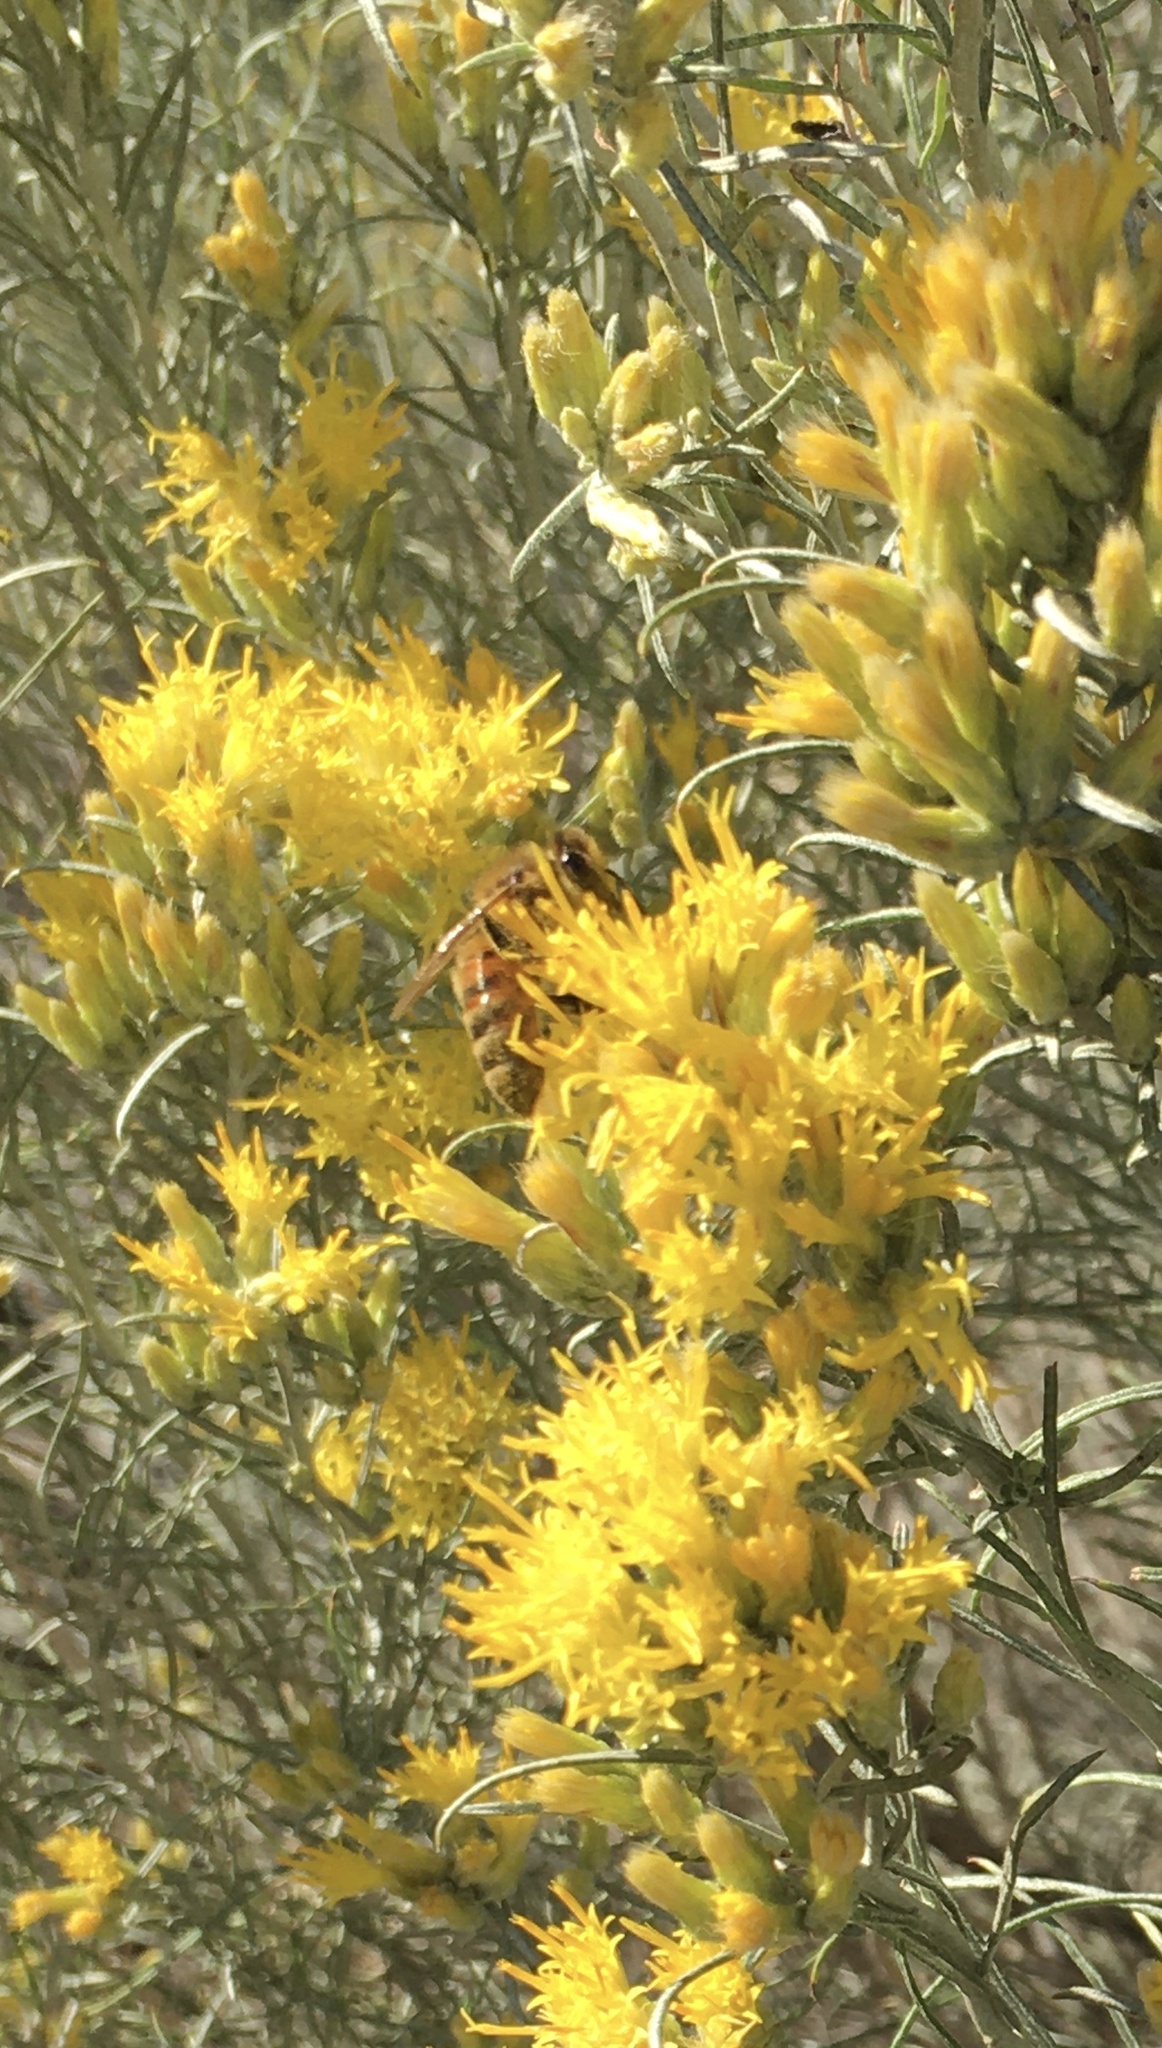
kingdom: Animalia
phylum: Arthropoda
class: Insecta
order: Hymenoptera
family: Apidae
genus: Apis
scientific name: Apis mellifera
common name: Honey bee
